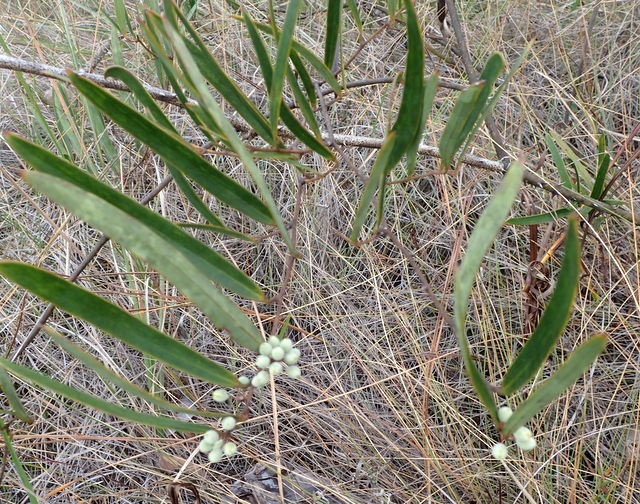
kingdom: Plantae
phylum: Tracheophyta
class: Liliopsida
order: Liliales
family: Smilacaceae
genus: Smilax
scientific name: Smilax laurifolia
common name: Bamboovine
